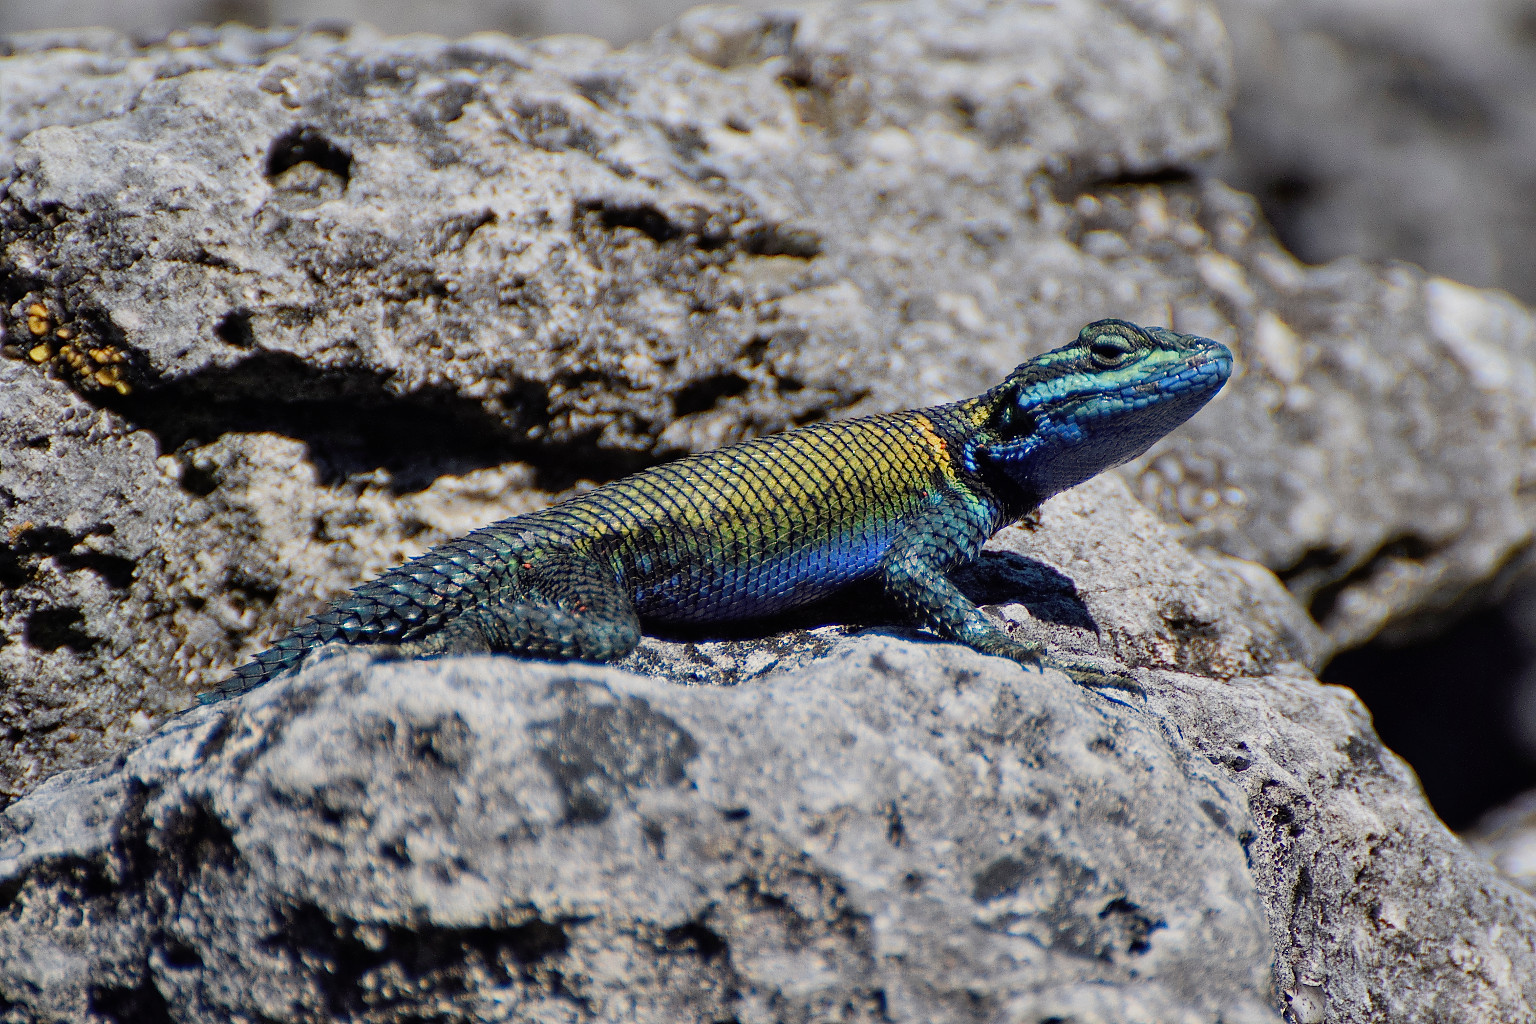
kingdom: Animalia
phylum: Chordata
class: Squamata
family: Phrynosomatidae
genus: Sceloporus
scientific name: Sceloporus minor
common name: Minor lizard
